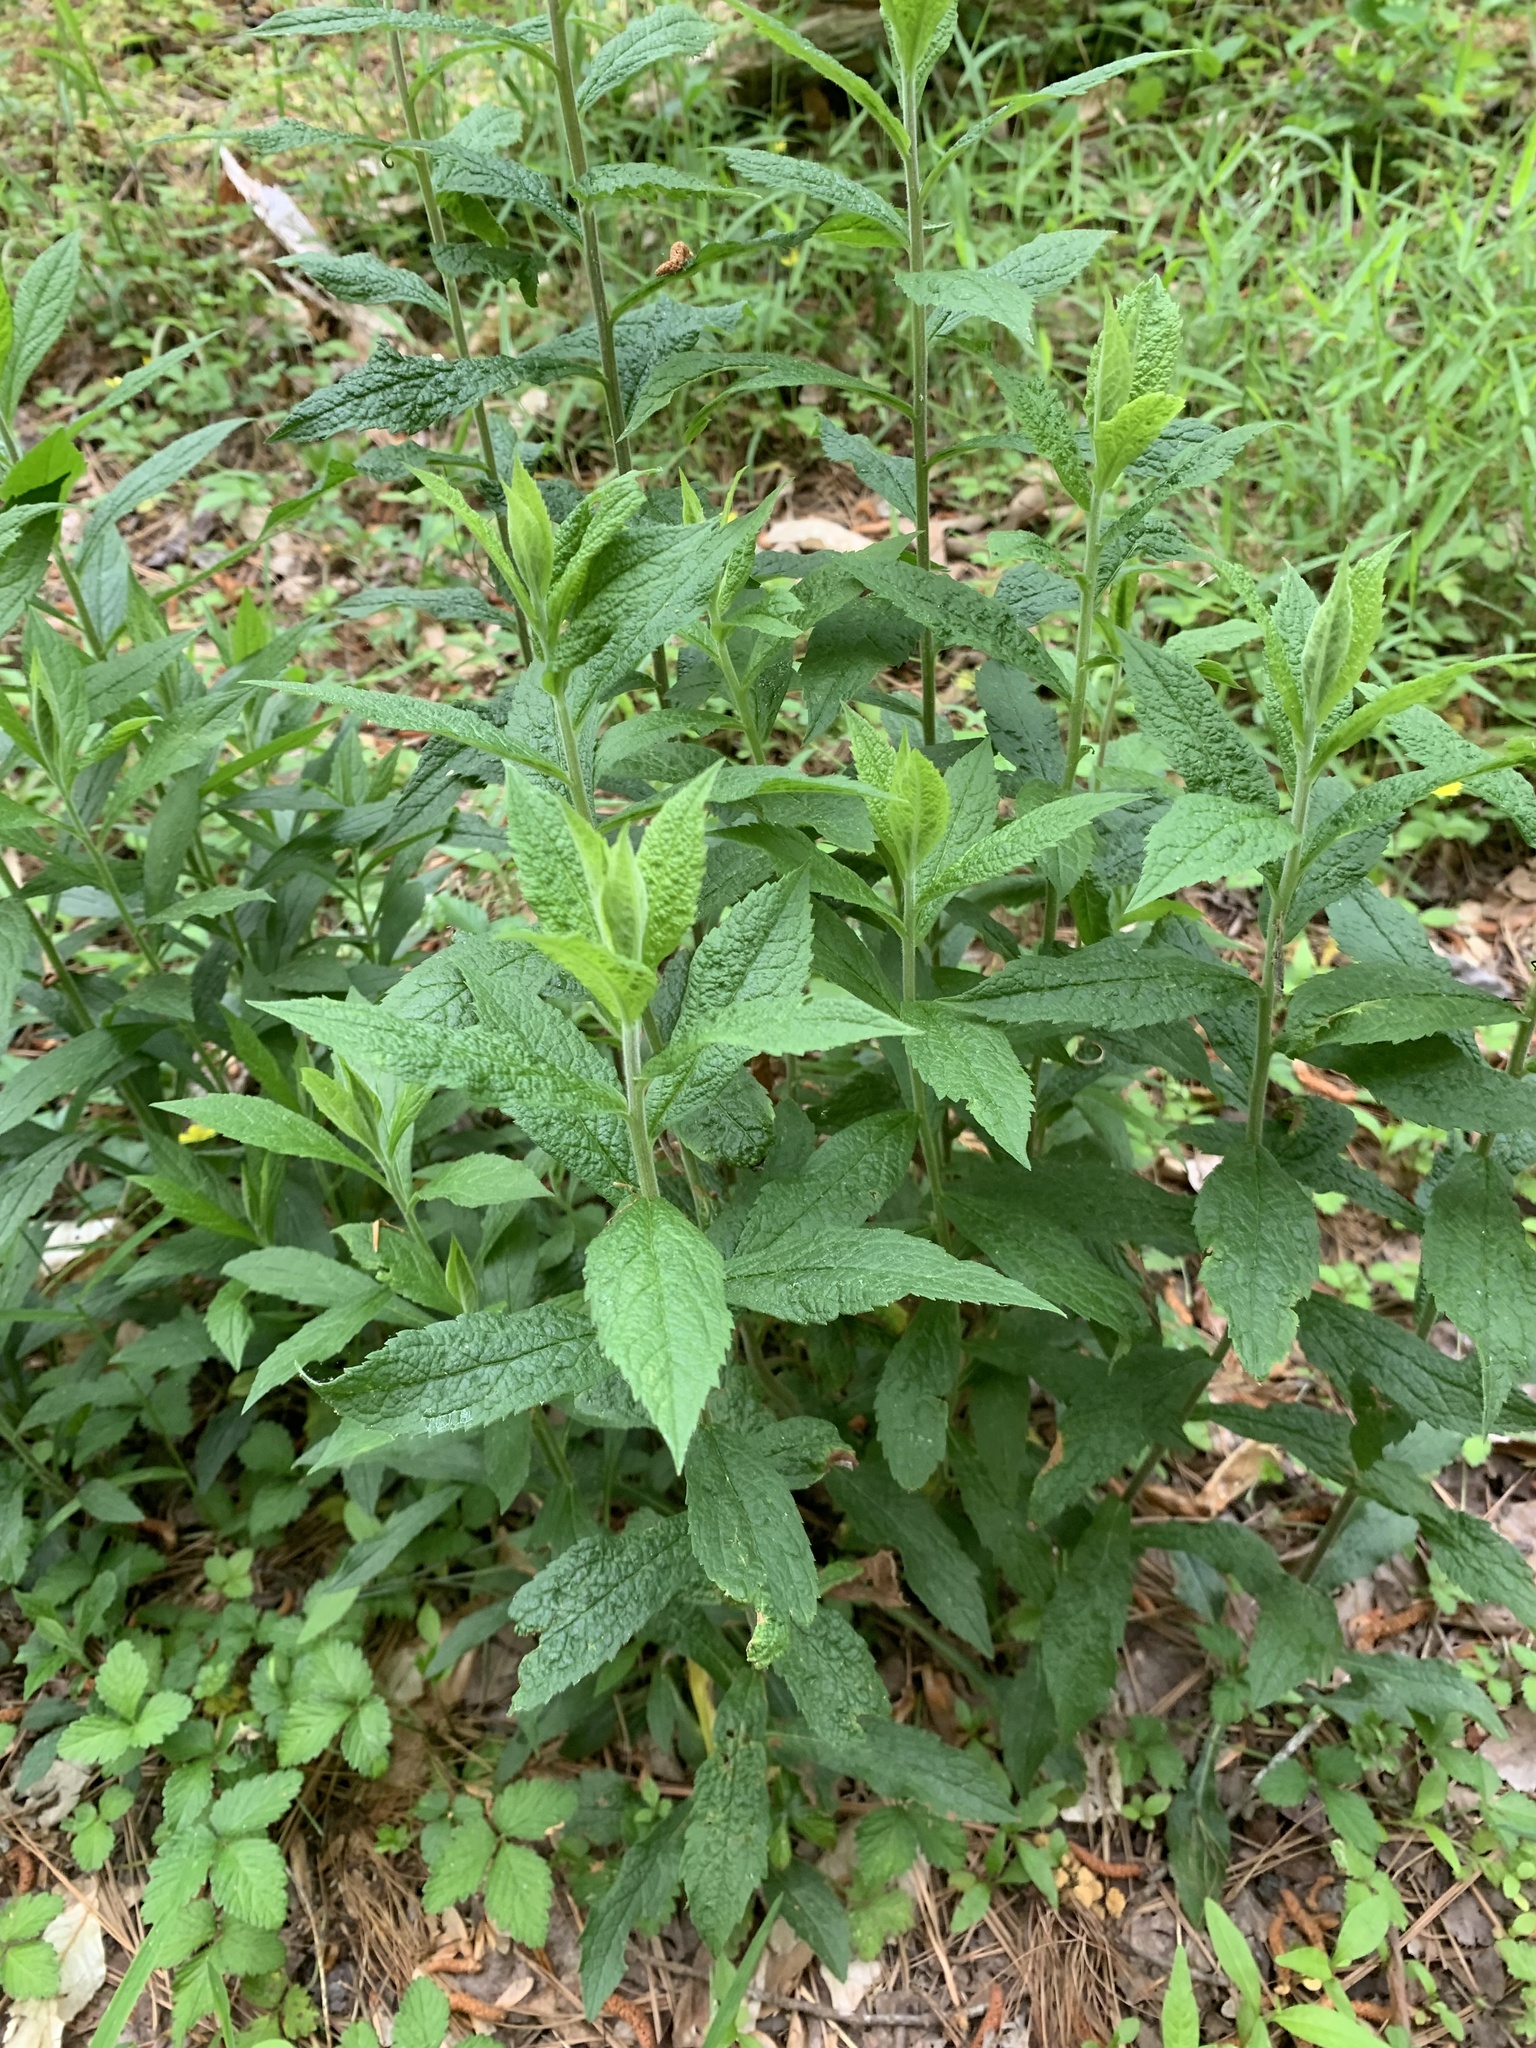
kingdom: Plantae
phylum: Tracheophyta
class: Magnoliopsida
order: Asterales
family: Asteraceae
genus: Solidago
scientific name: Solidago rugosa
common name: Rough-stemmed goldenrod
